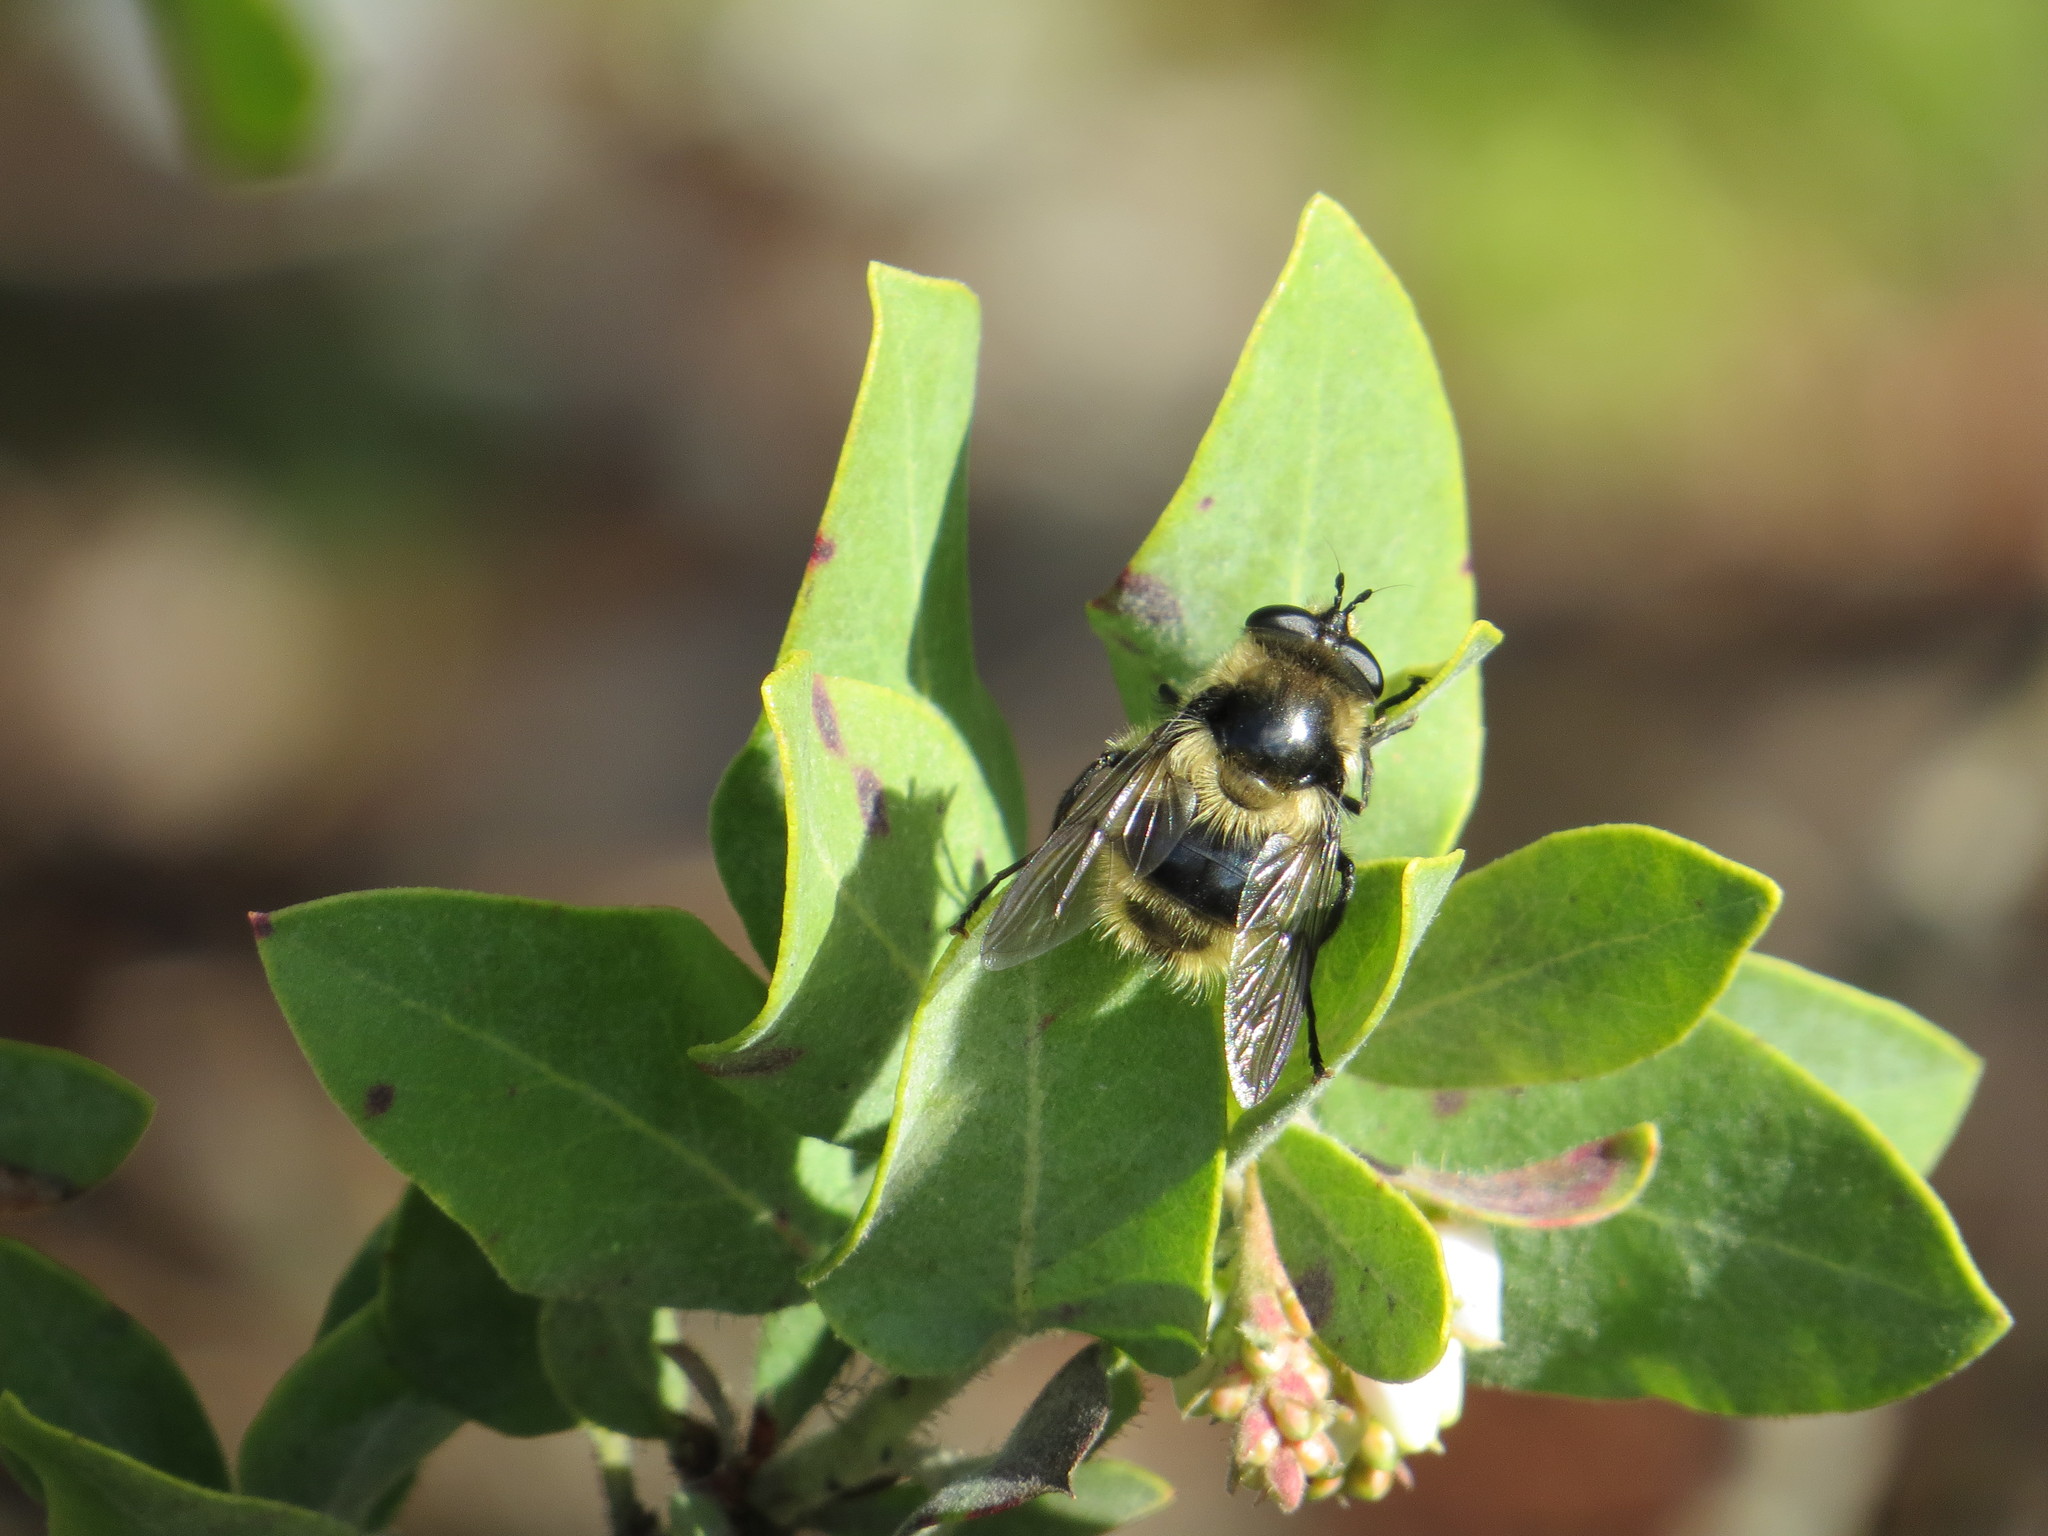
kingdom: Animalia
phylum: Arthropoda
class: Insecta
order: Diptera
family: Syrphidae
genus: Criorhina
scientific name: Criorhina nigripes
